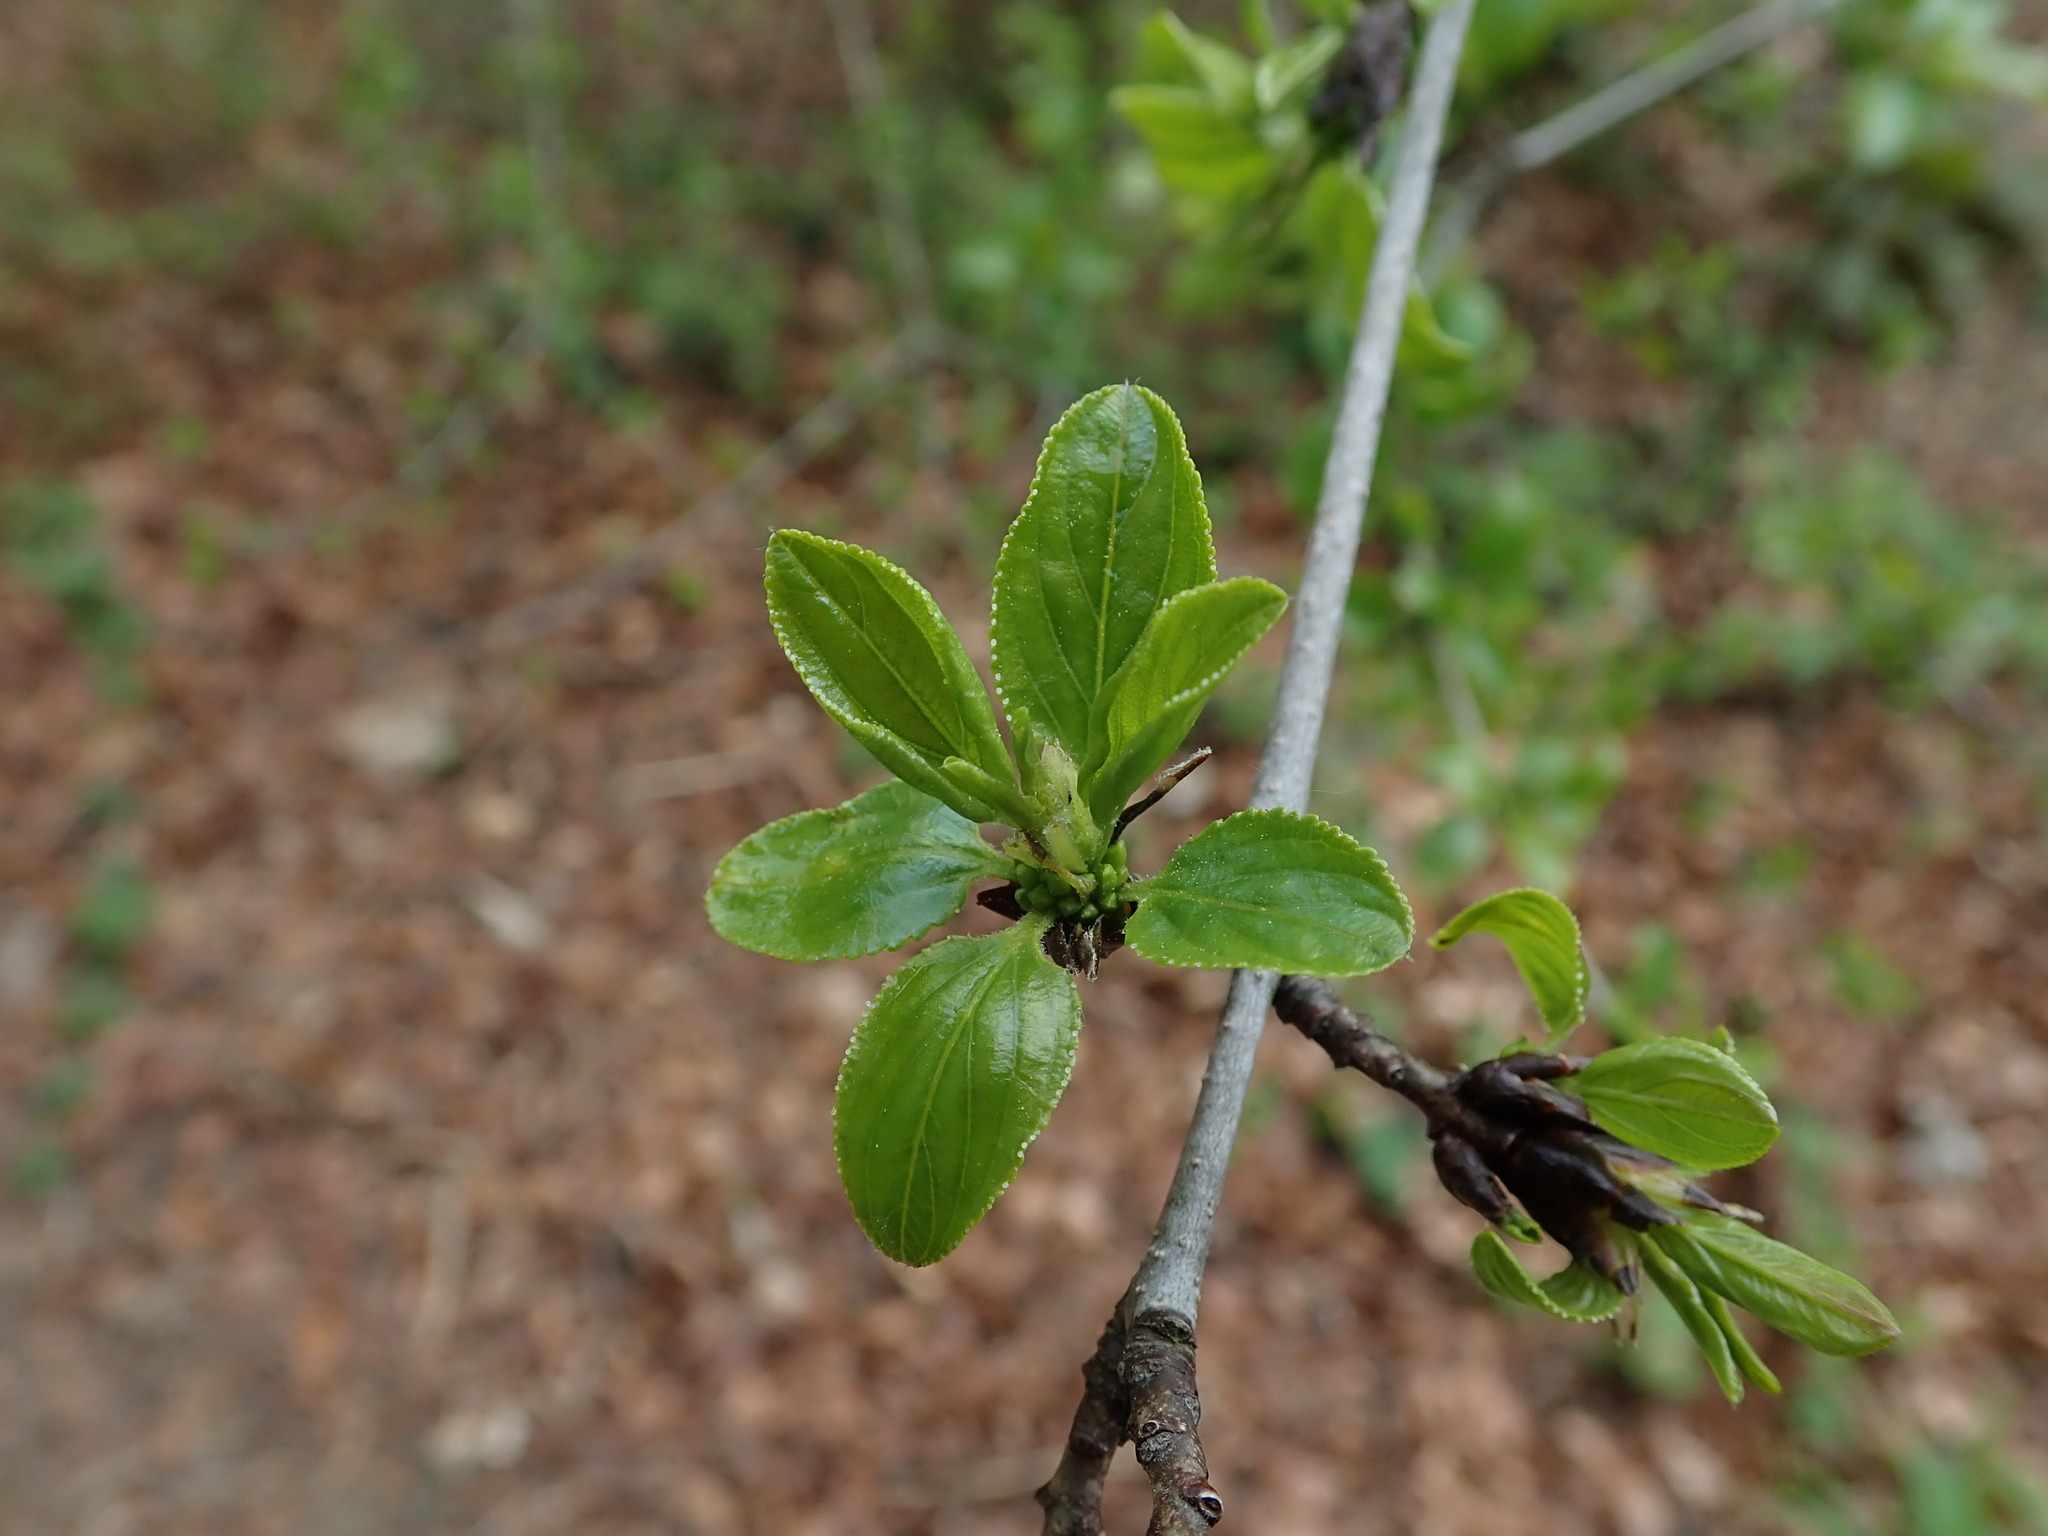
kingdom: Plantae
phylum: Tracheophyta
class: Magnoliopsida
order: Rosales
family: Rhamnaceae
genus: Rhamnus
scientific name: Rhamnus cathartica
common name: Common buckthorn
